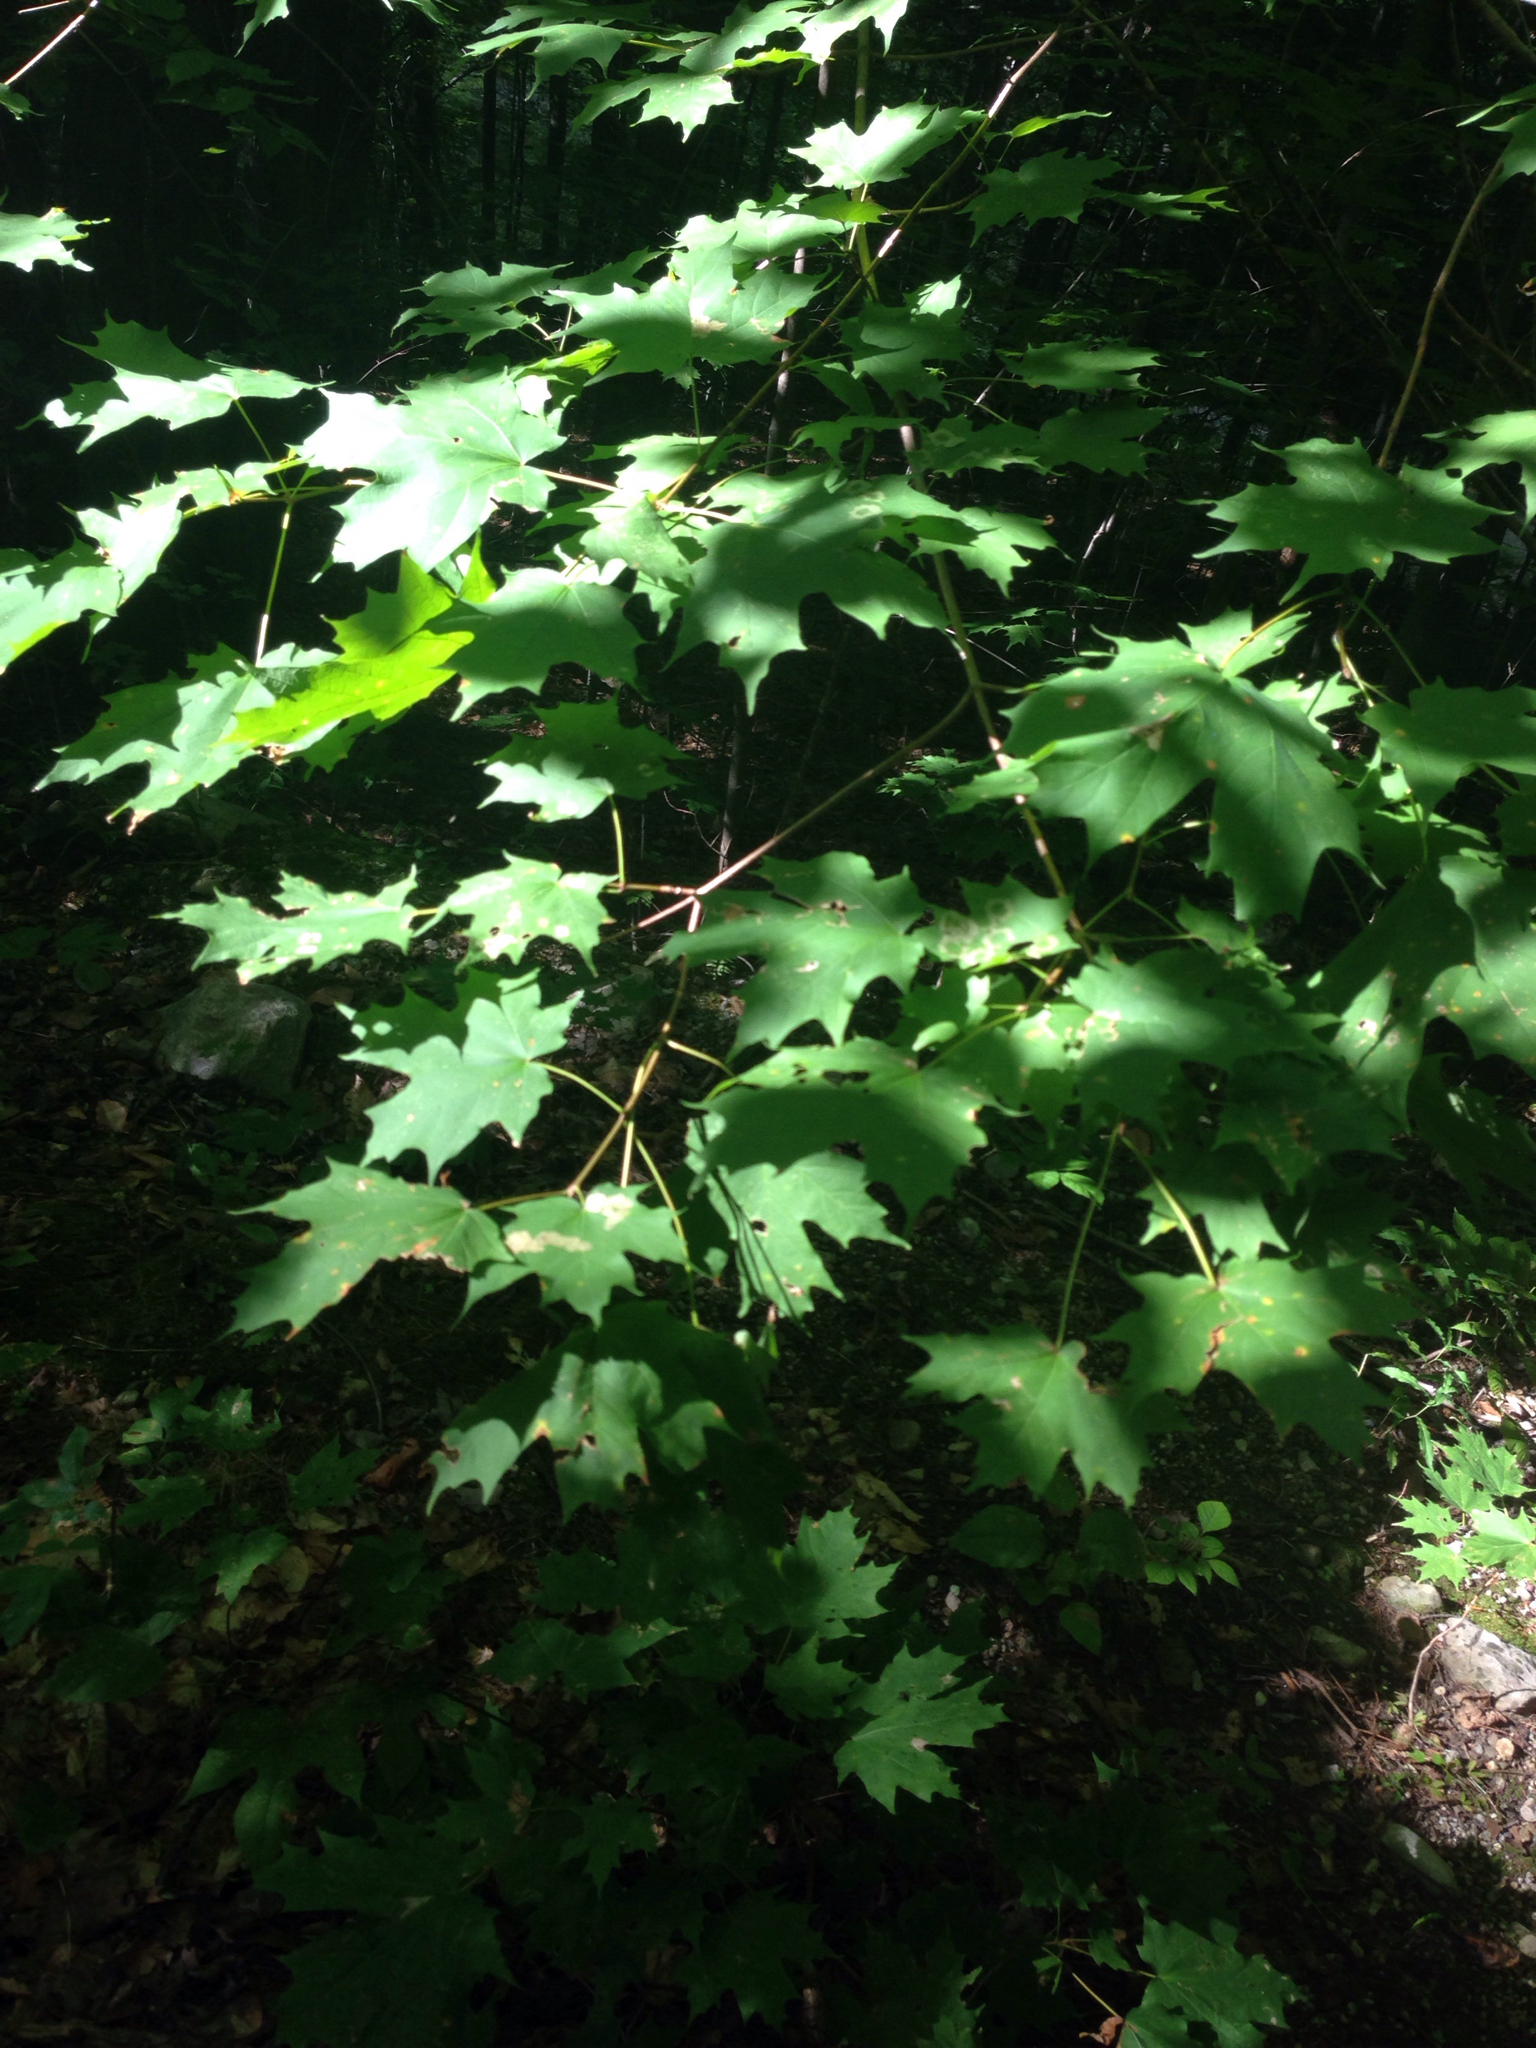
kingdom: Plantae
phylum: Tracheophyta
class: Magnoliopsida
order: Sapindales
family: Sapindaceae
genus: Acer
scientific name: Acer saccharum
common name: Sugar maple
